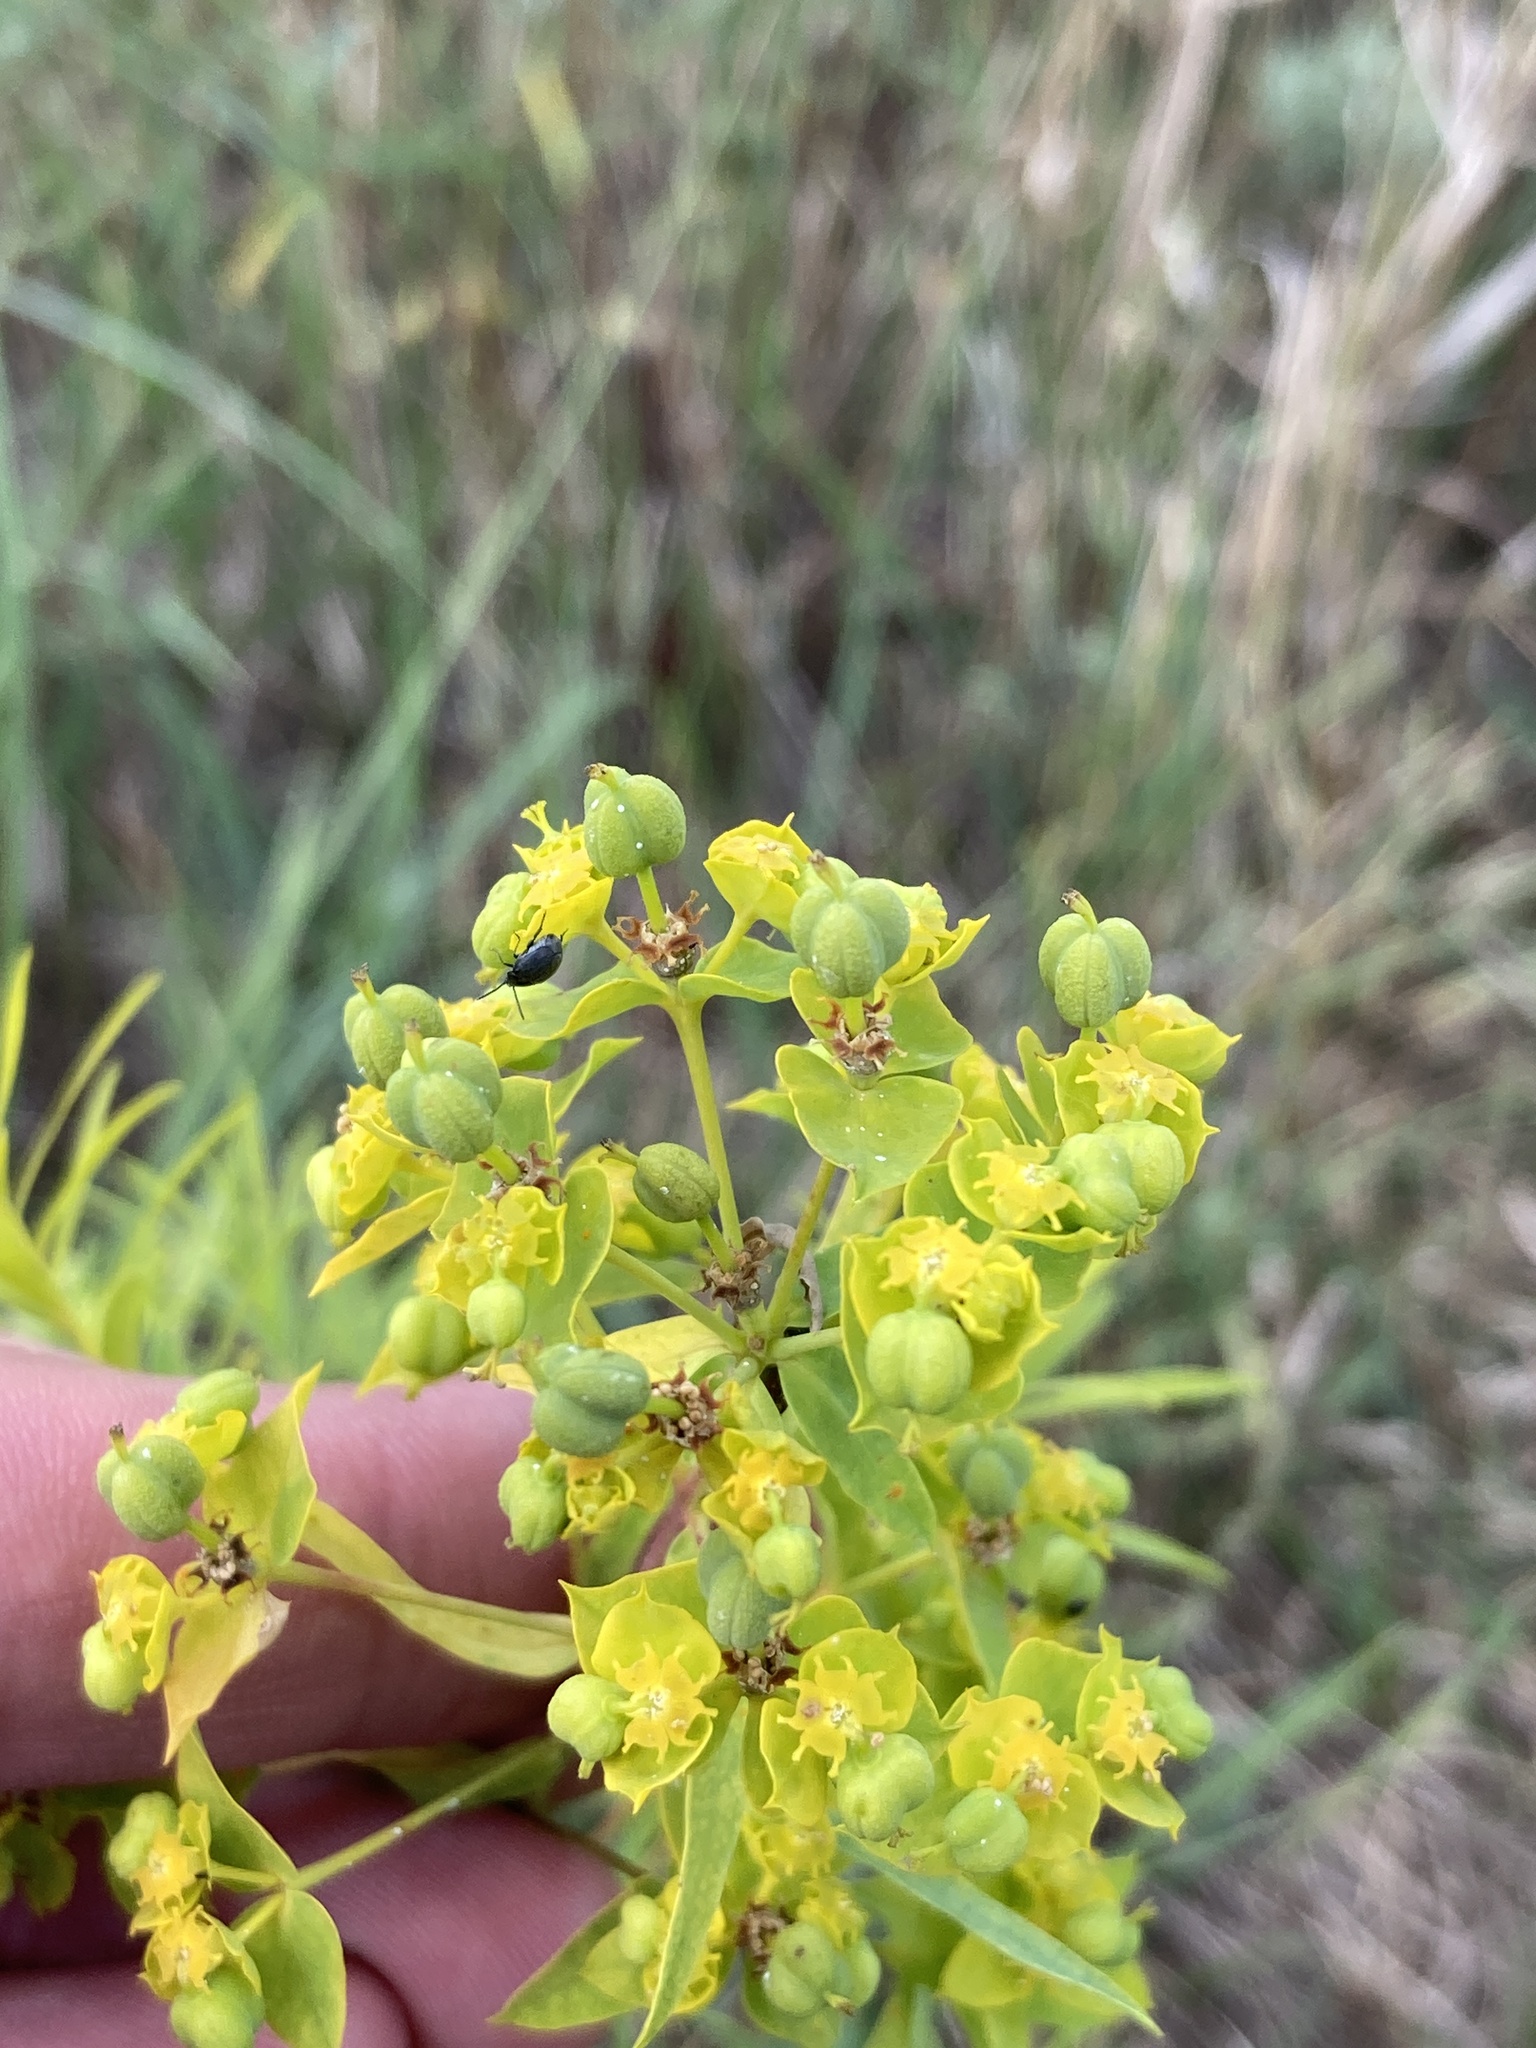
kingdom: Plantae
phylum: Tracheophyta
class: Magnoliopsida
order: Malpighiales
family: Euphorbiaceae
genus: Euphorbia
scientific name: Euphorbia virgata
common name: Leafy spurge
